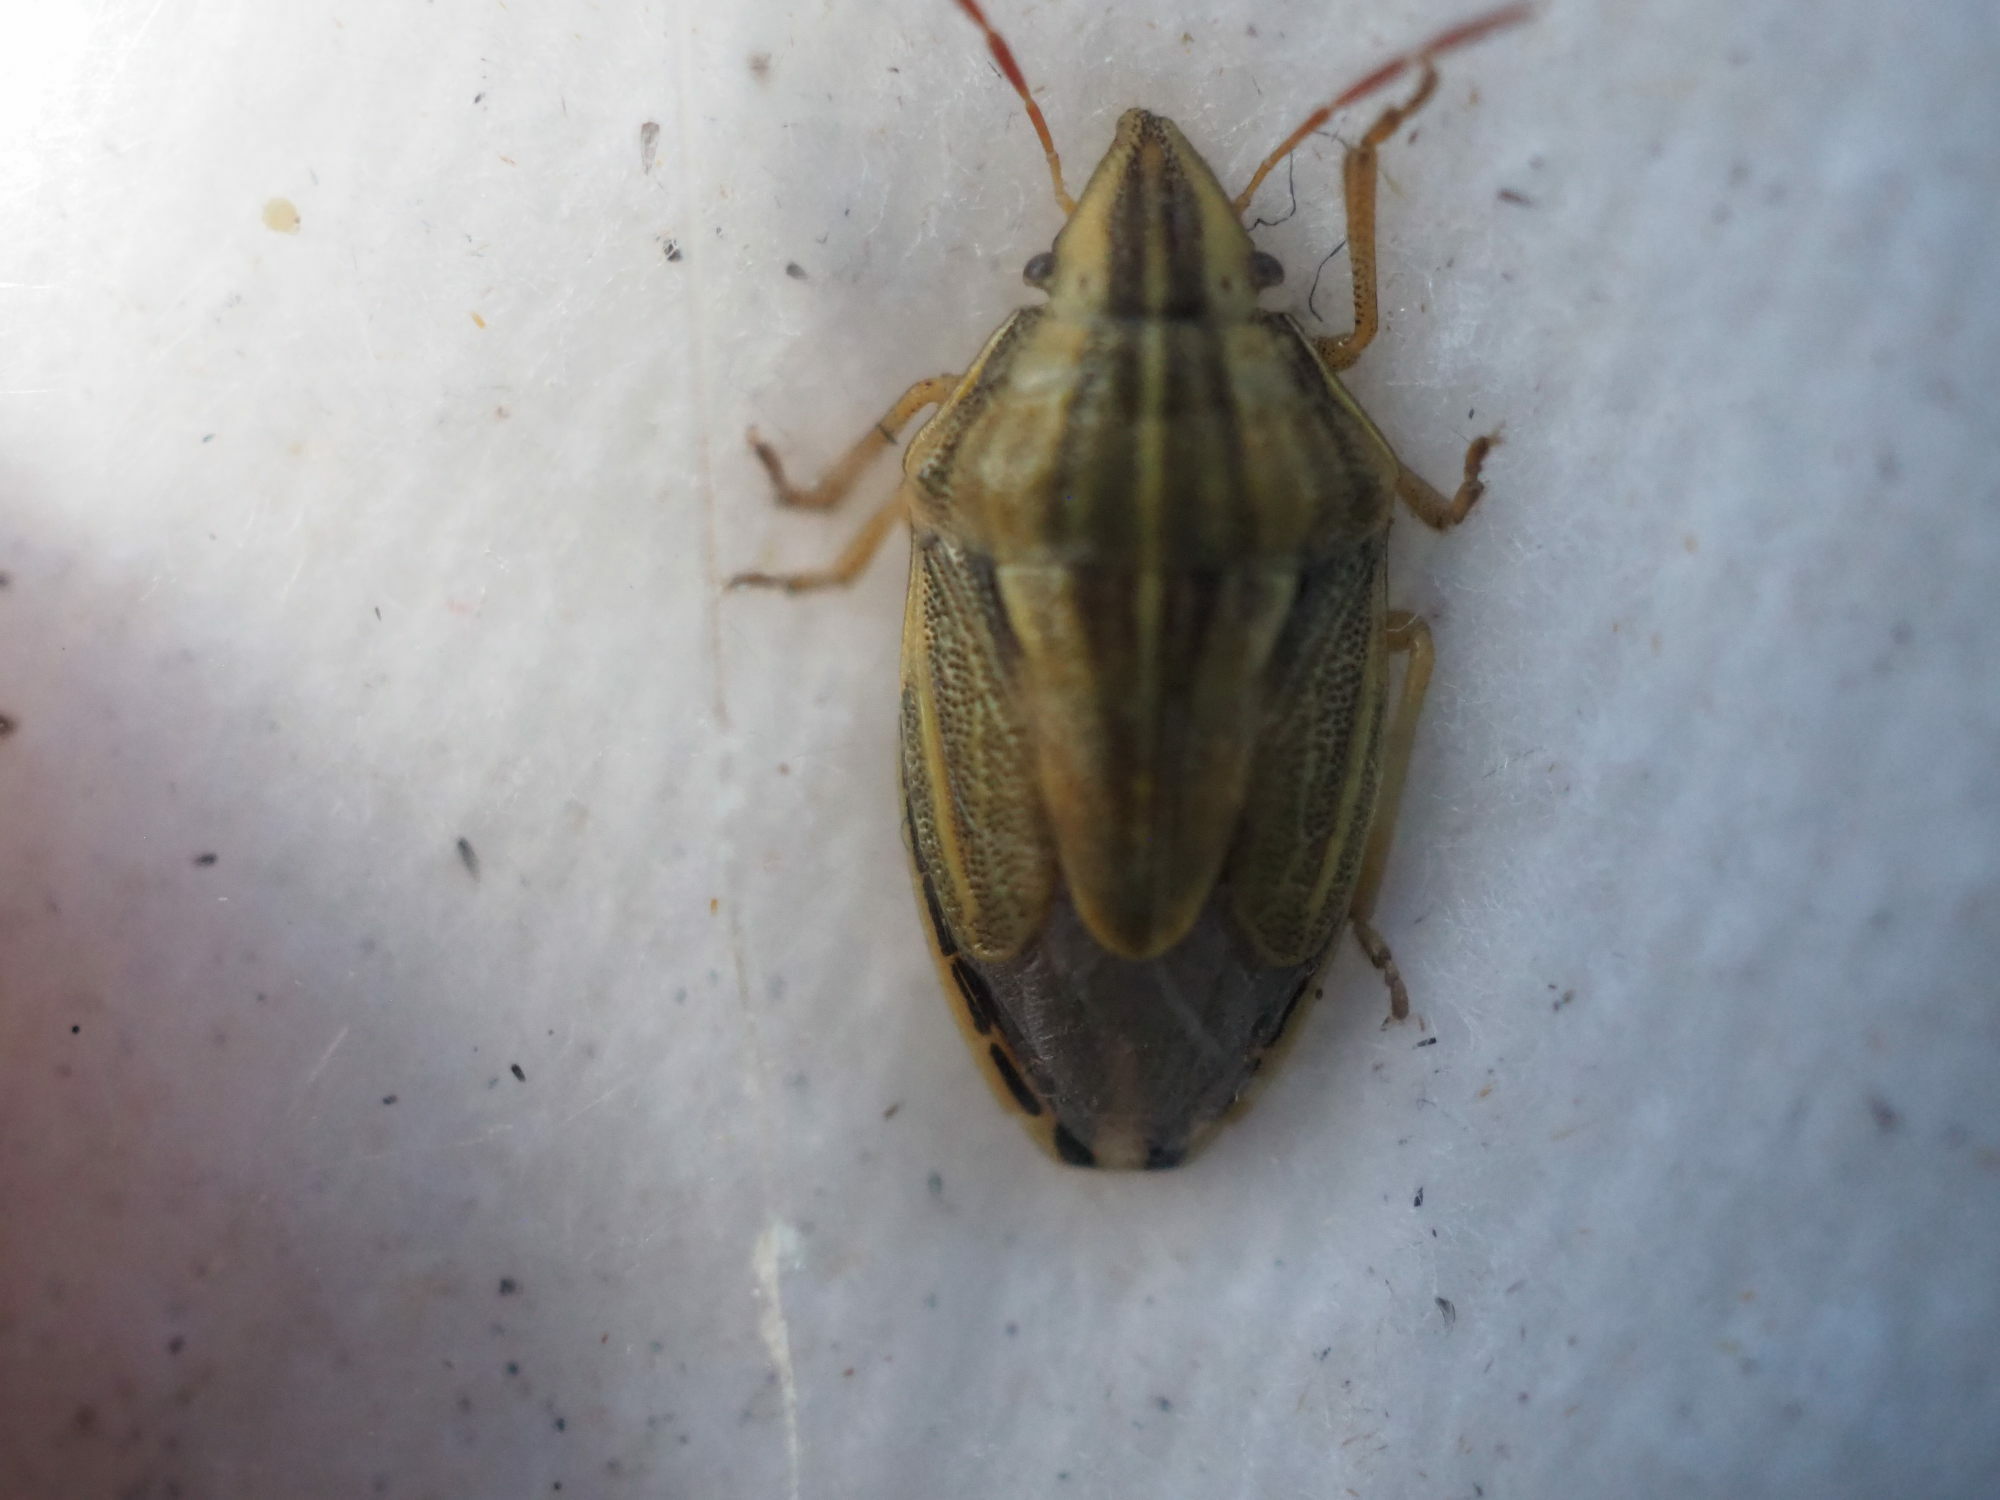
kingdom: Animalia
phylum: Arthropoda
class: Insecta
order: Hemiptera
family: Pentatomidae
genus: Aelia
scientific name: Aelia acuminata
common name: Bishop's mitre
